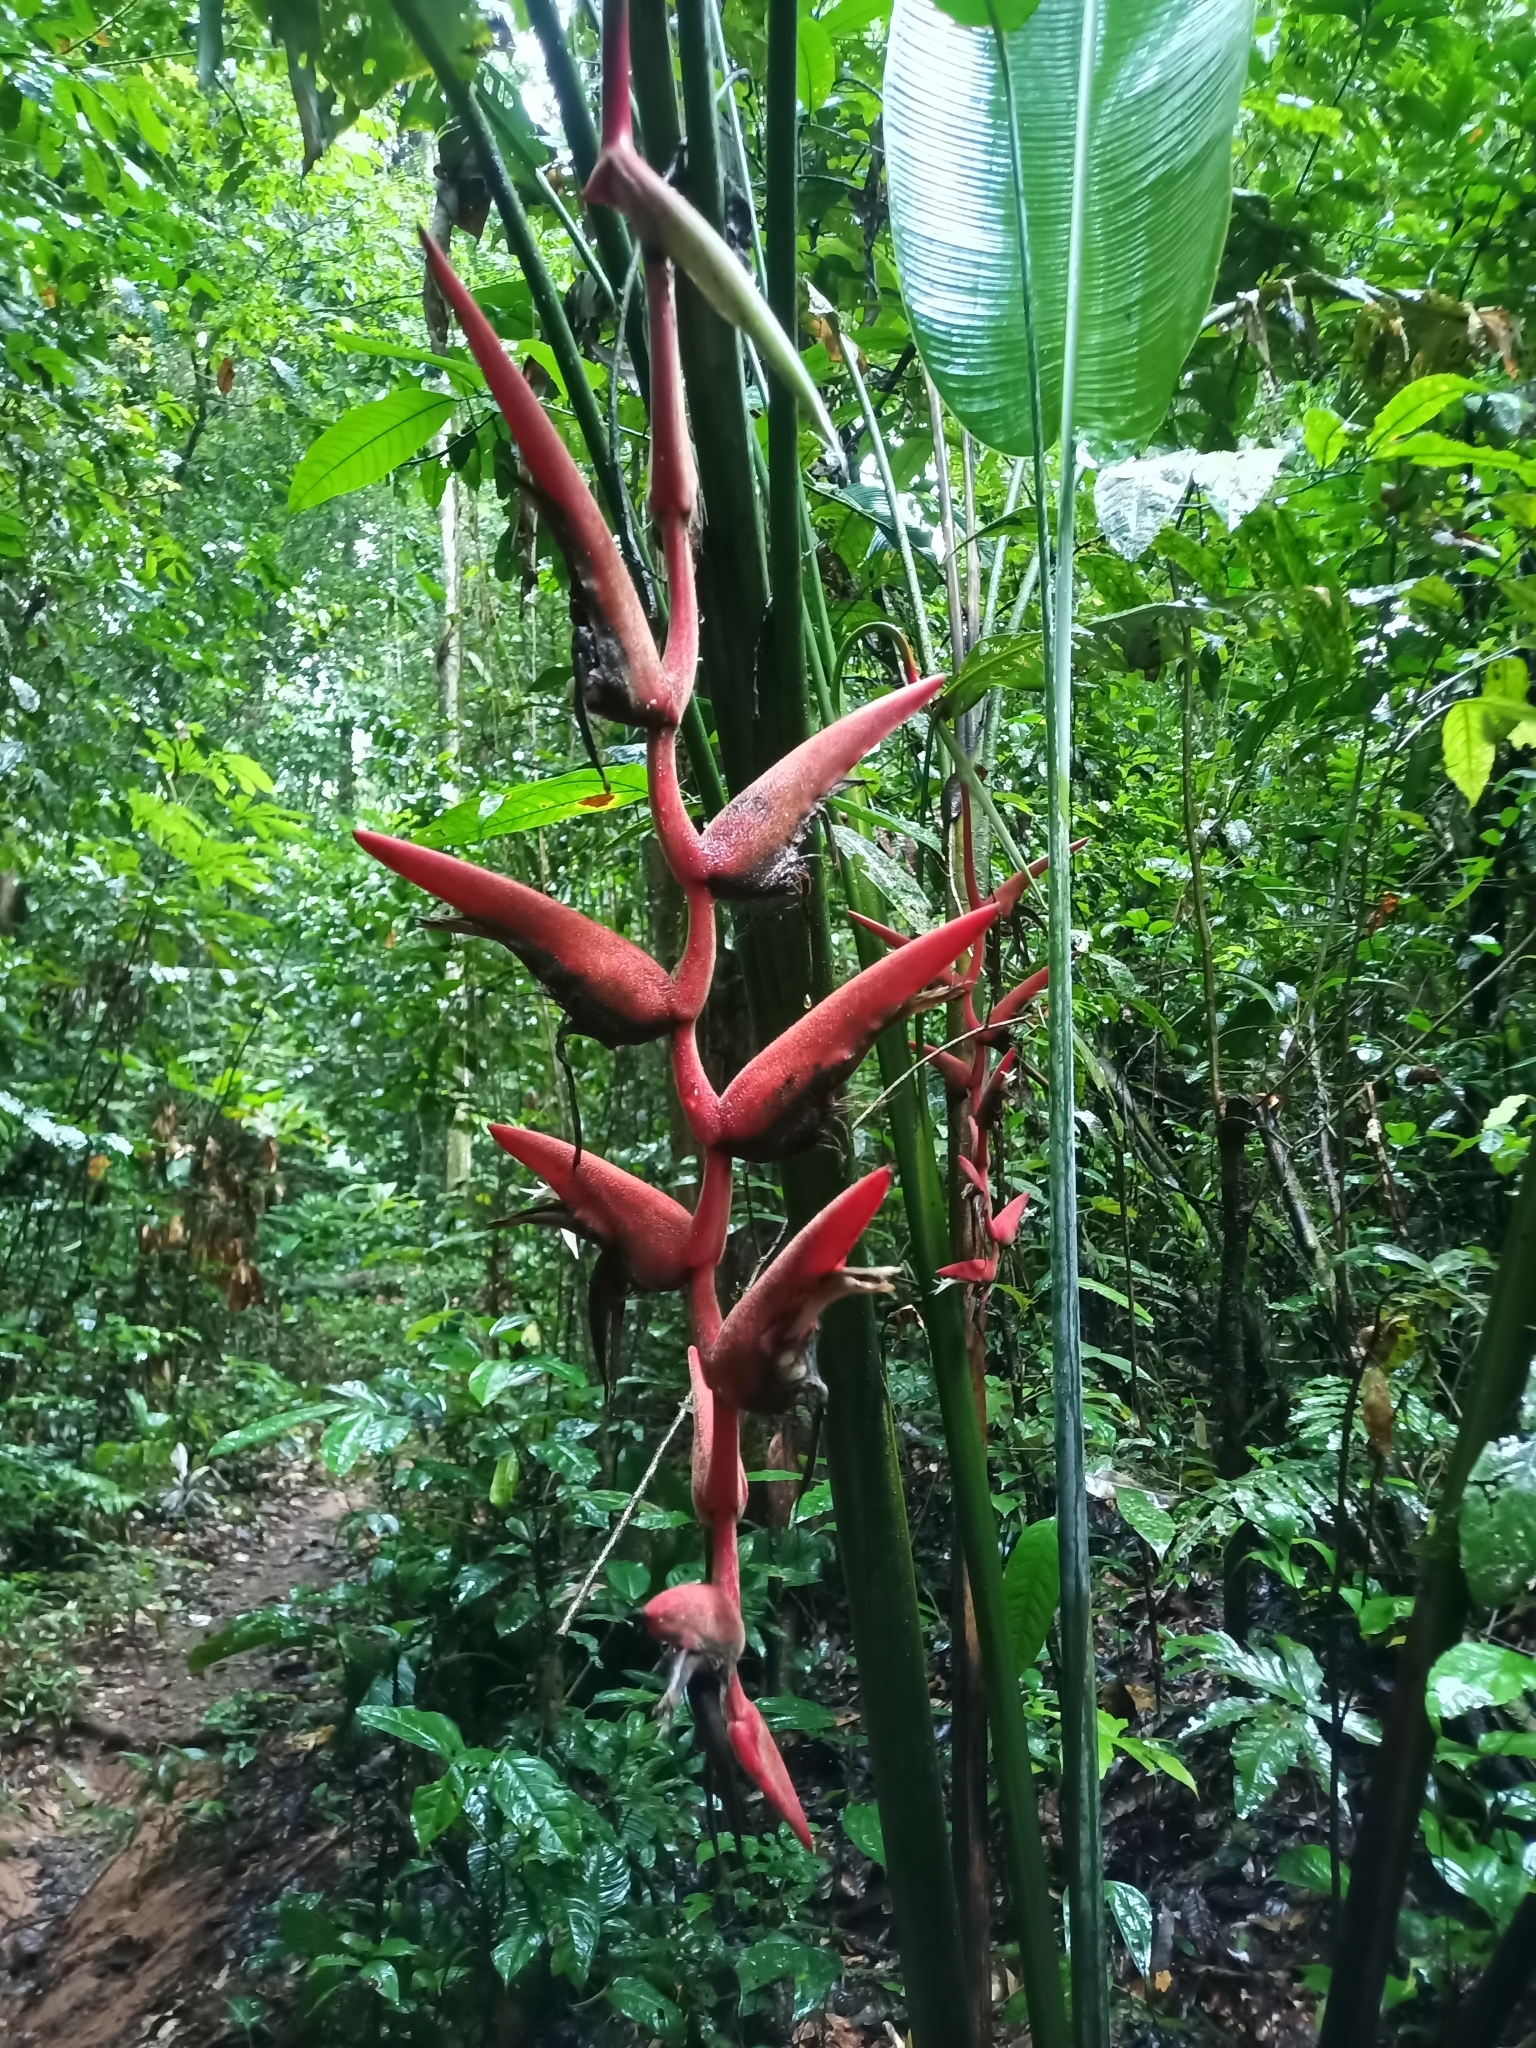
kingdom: Plantae
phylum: Tracheophyta
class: Liliopsida
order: Zingiberales
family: Heliconiaceae
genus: Heliconia
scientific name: Heliconia pendula
